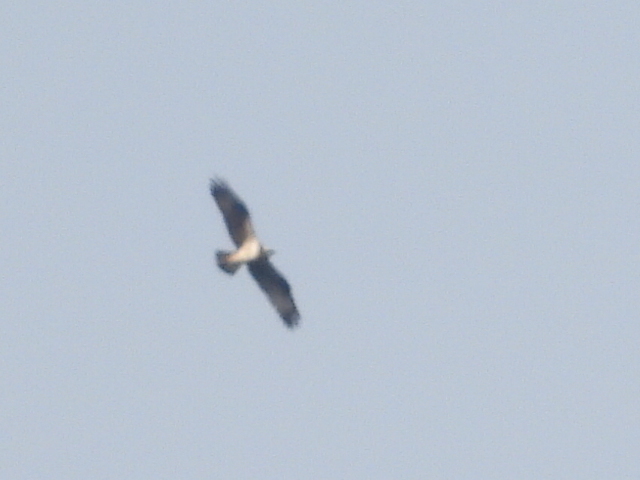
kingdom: Animalia
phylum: Chordata
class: Aves
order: Accipitriformes
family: Pandionidae
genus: Pandion
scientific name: Pandion haliaetus
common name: Osprey
